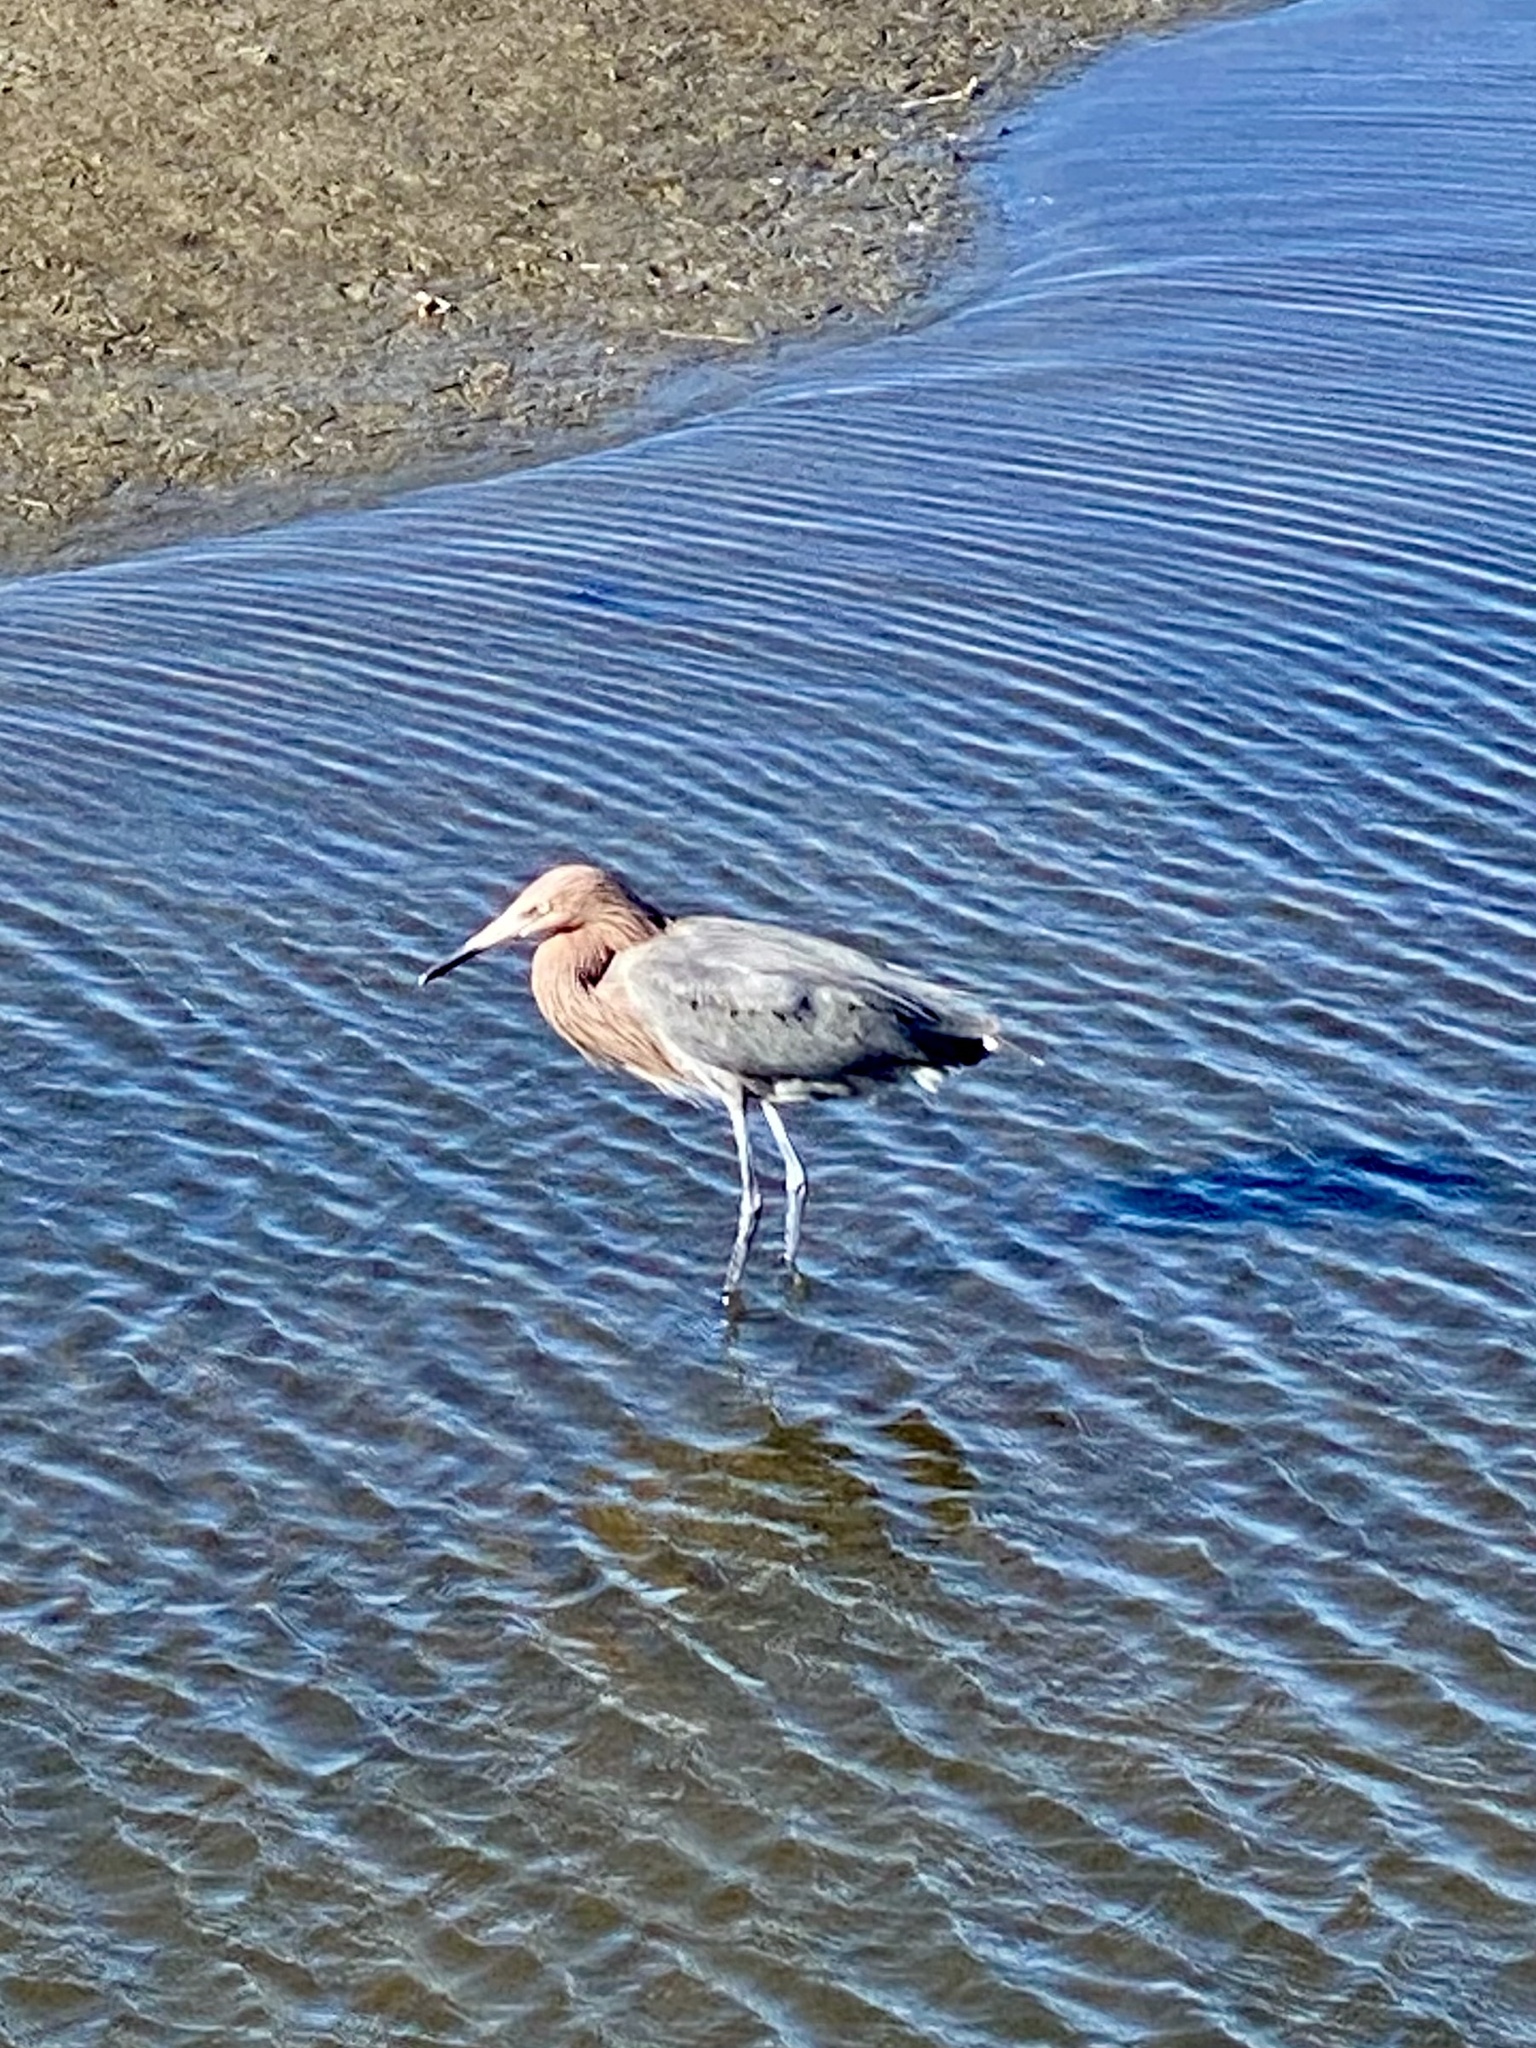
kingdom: Animalia
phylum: Chordata
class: Aves
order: Pelecaniformes
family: Ardeidae
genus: Egretta
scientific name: Egretta rufescens
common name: Reddish egret
